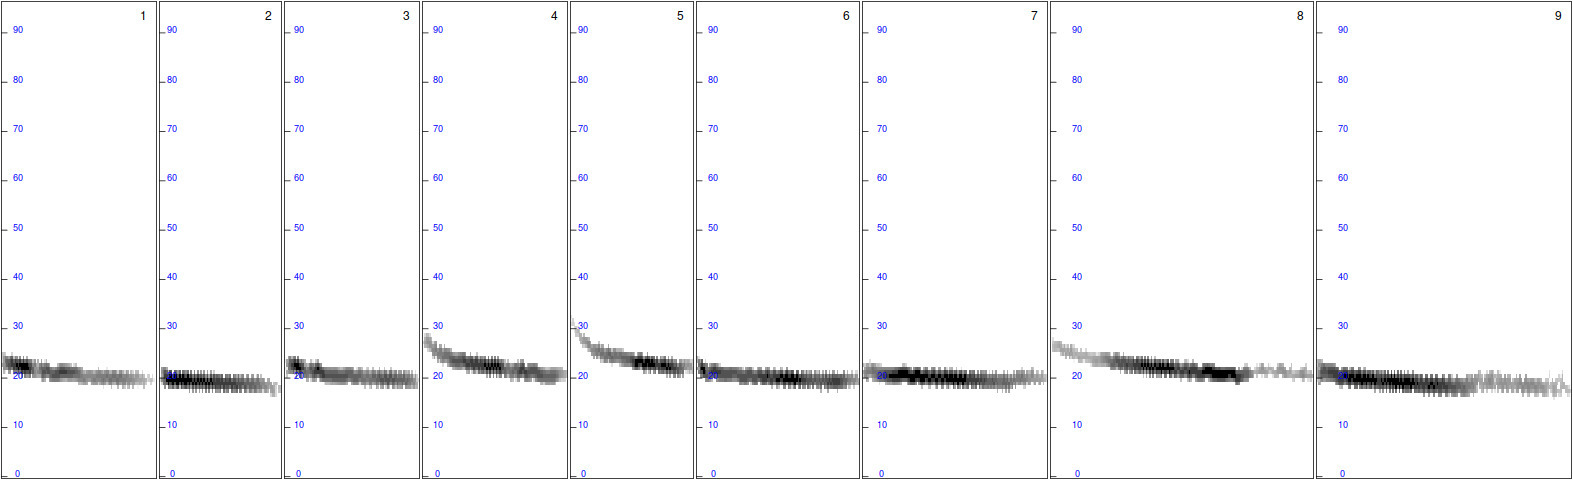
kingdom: Animalia
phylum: Chordata
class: Mammalia
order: Chiroptera
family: Vespertilionidae
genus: Nyctalus
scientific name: Nyctalus noctula
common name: Noctule
